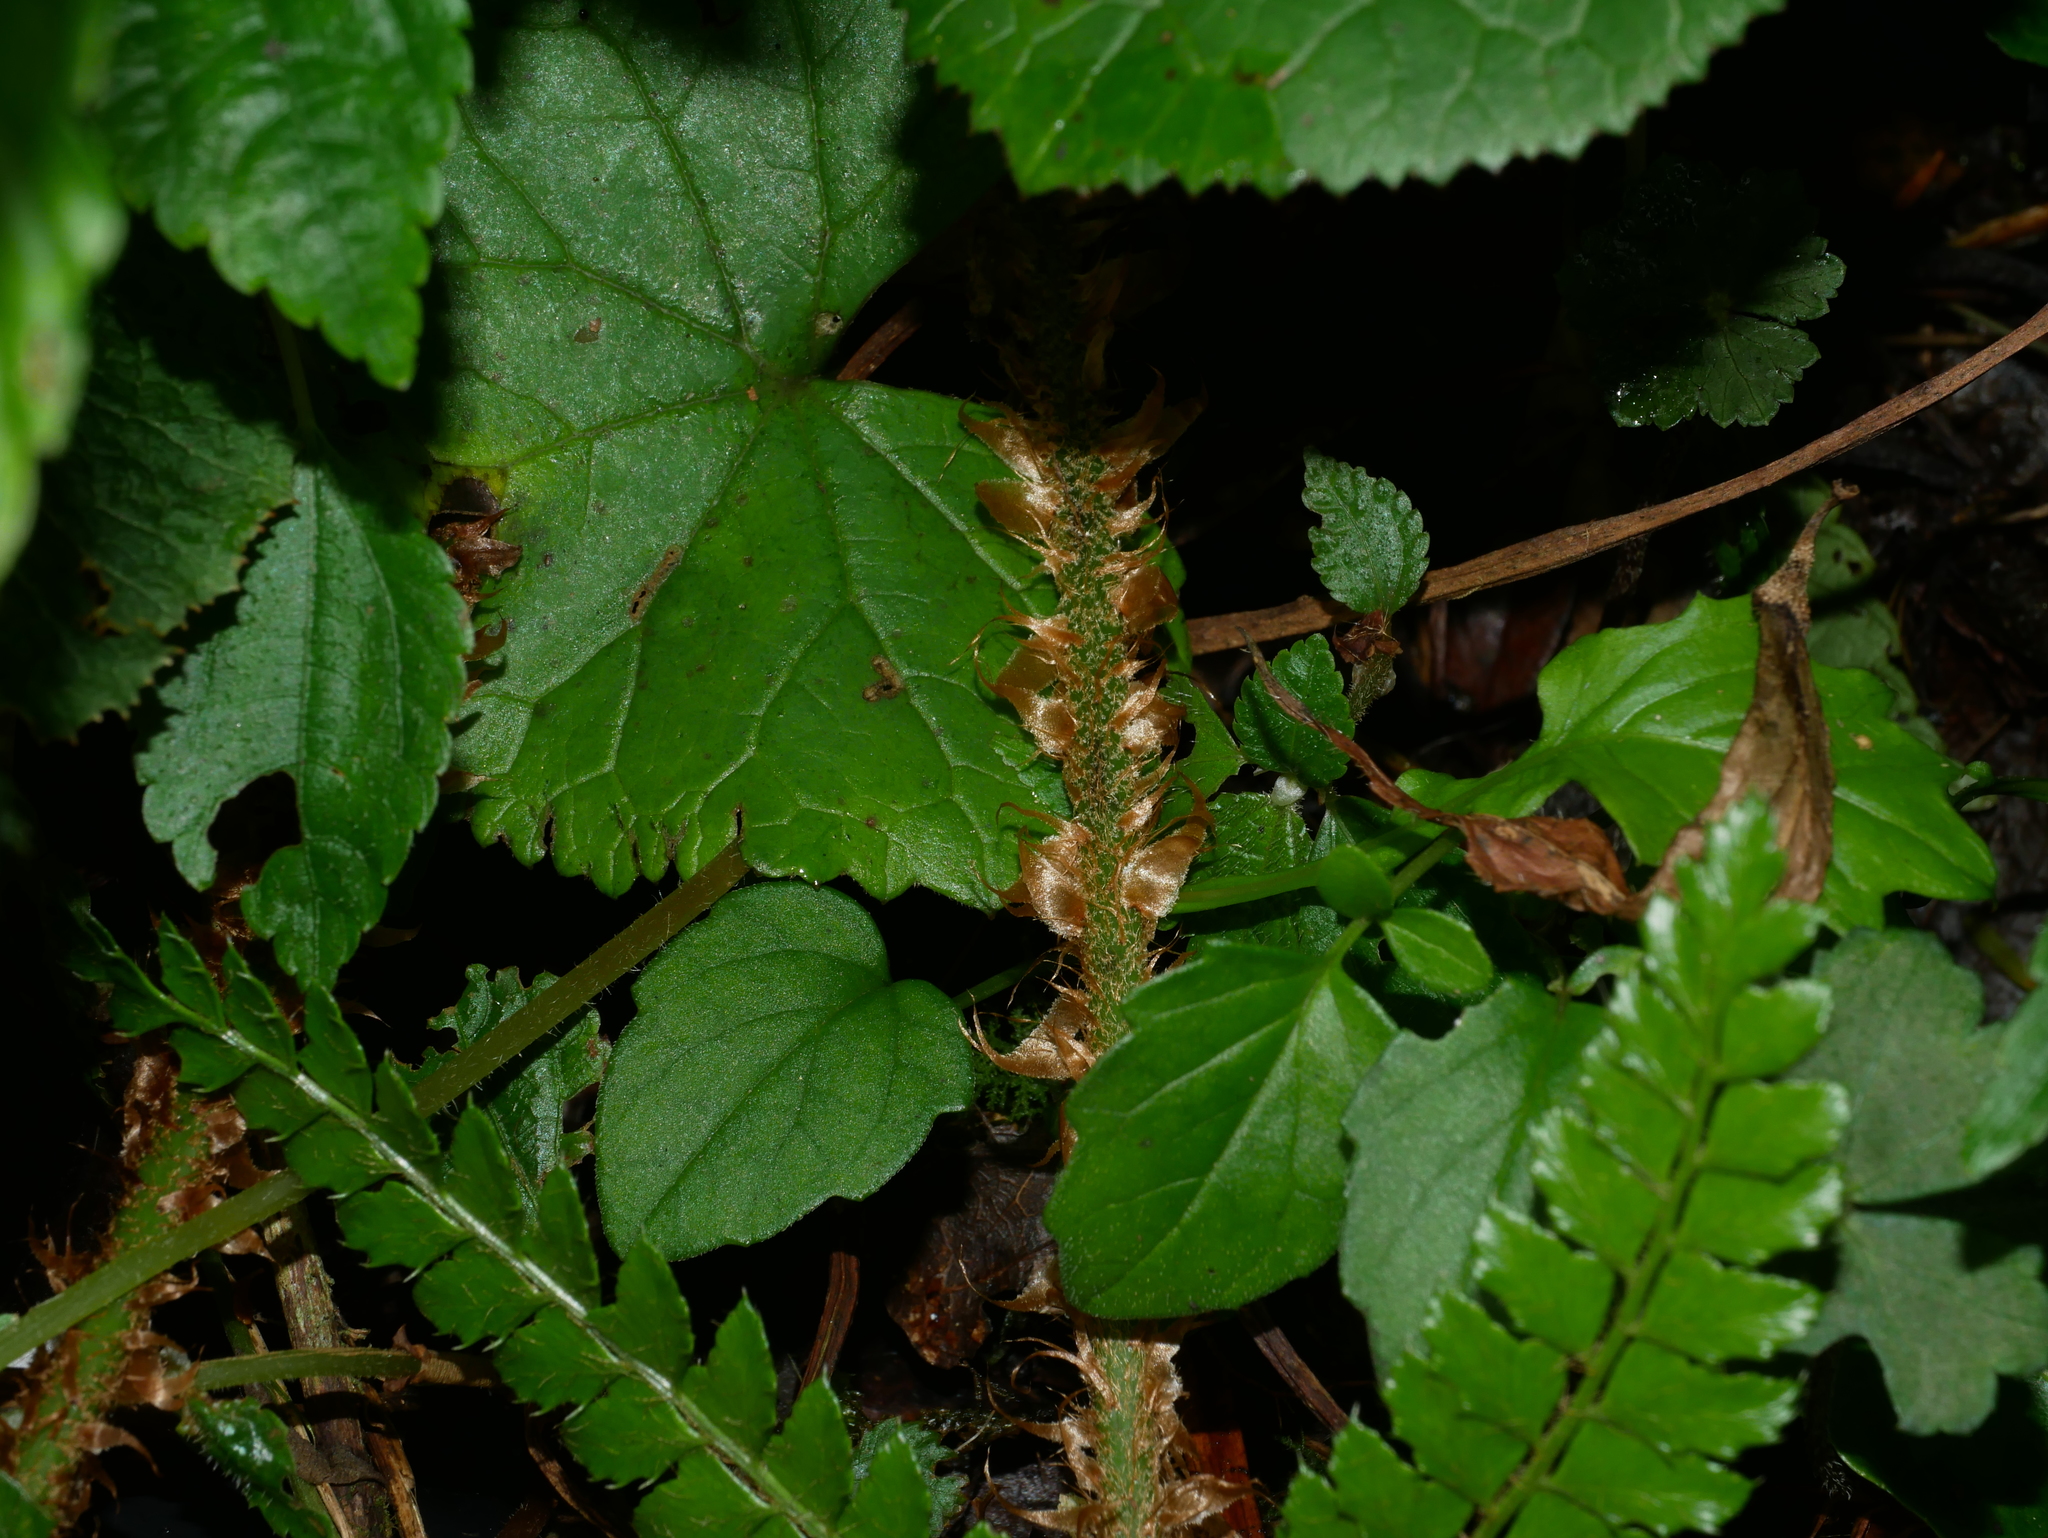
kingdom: Plantae
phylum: Tracheophyta
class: Polypodiopsida
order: Polypodiales
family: Dryopteridaceae
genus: Polystichum
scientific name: Polystichum parvipinnulum
